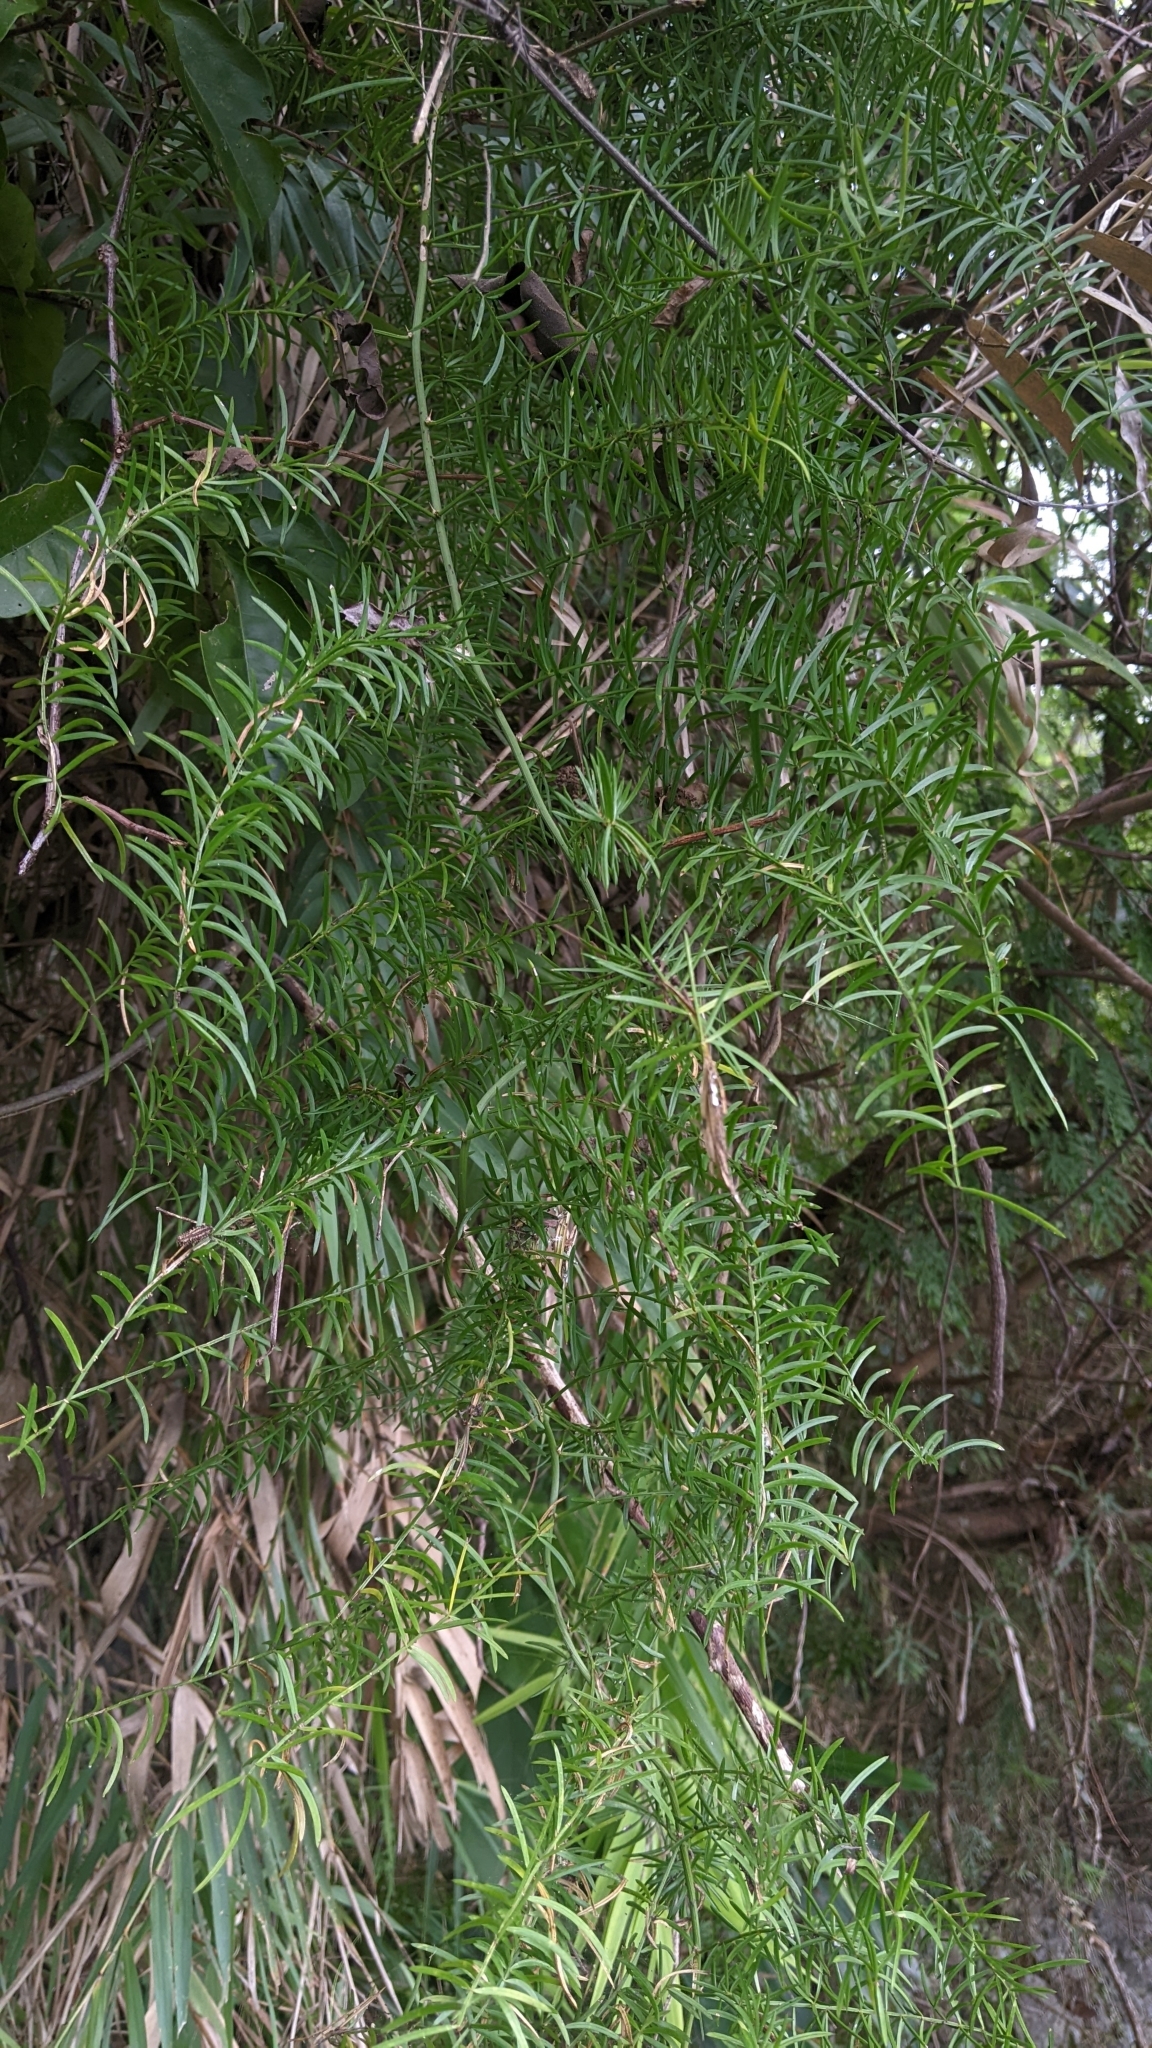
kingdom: Plantae
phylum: Tracheophyta
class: Liliopsida
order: Asparagales
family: Asparagaceae
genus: Asparagus
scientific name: Asparagus cochinchinensis
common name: Chinese asparagus
